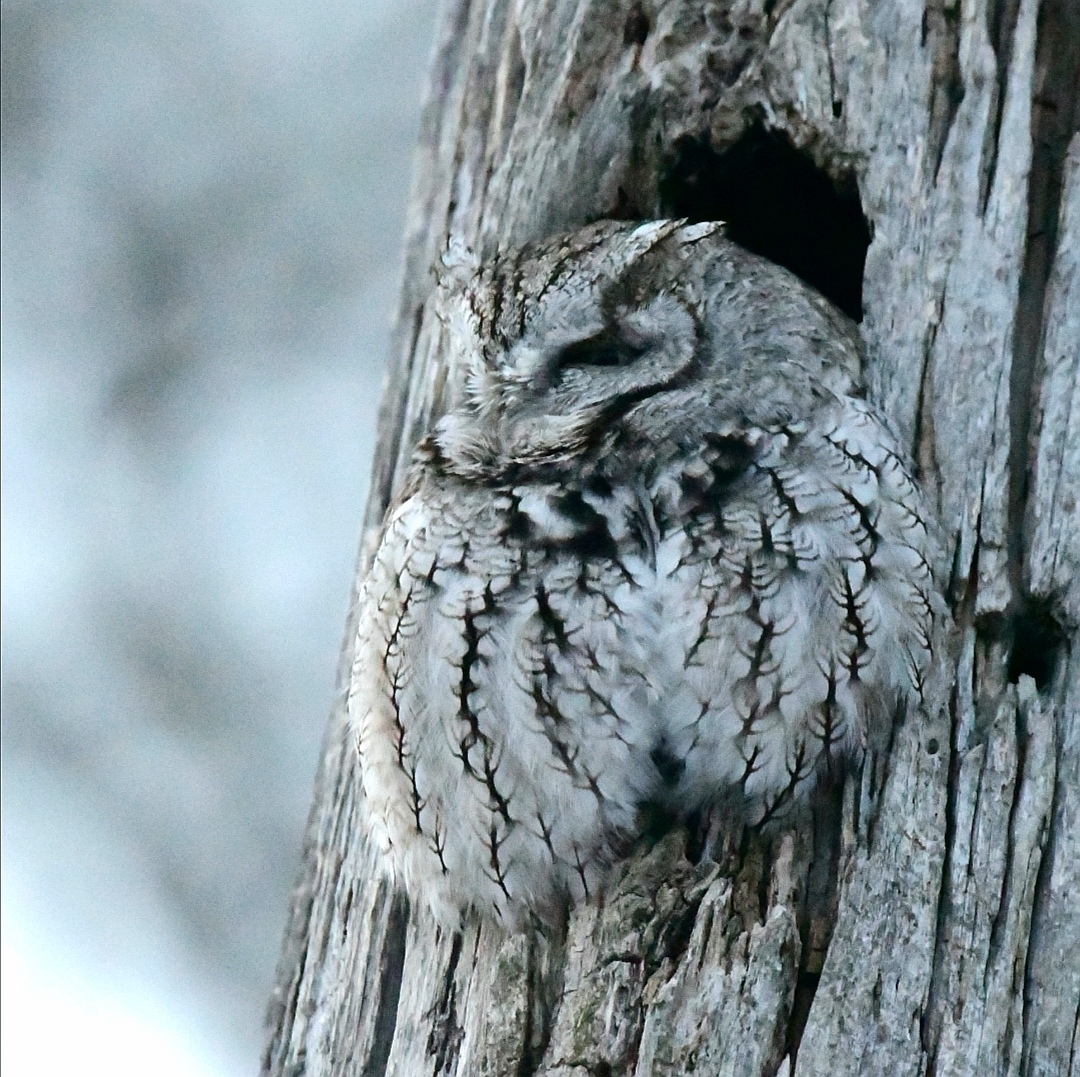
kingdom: Animalia
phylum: Chordata
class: Aves
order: Strigiformes
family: Strigidae
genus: Megascops
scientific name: Megascops asio
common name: Eastern screech-owl
